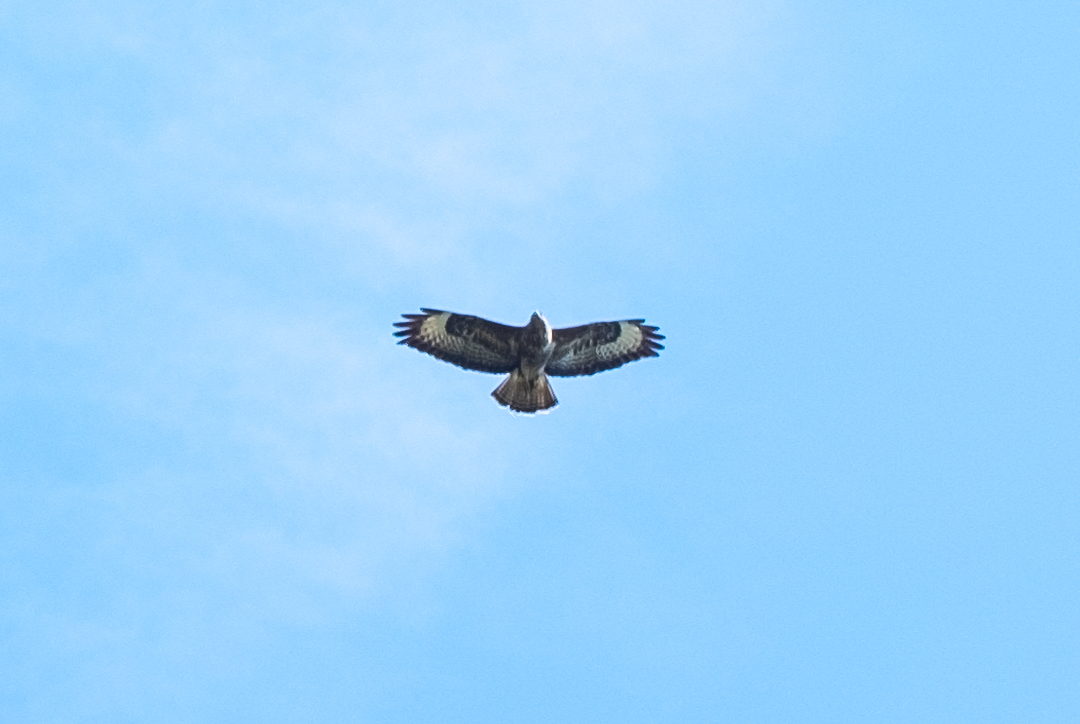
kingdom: Animalia
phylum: Chordata
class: Aves
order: Accipitriformes
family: Accipitridae
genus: Buteo
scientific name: Buteo buteo
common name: Common buzzard
